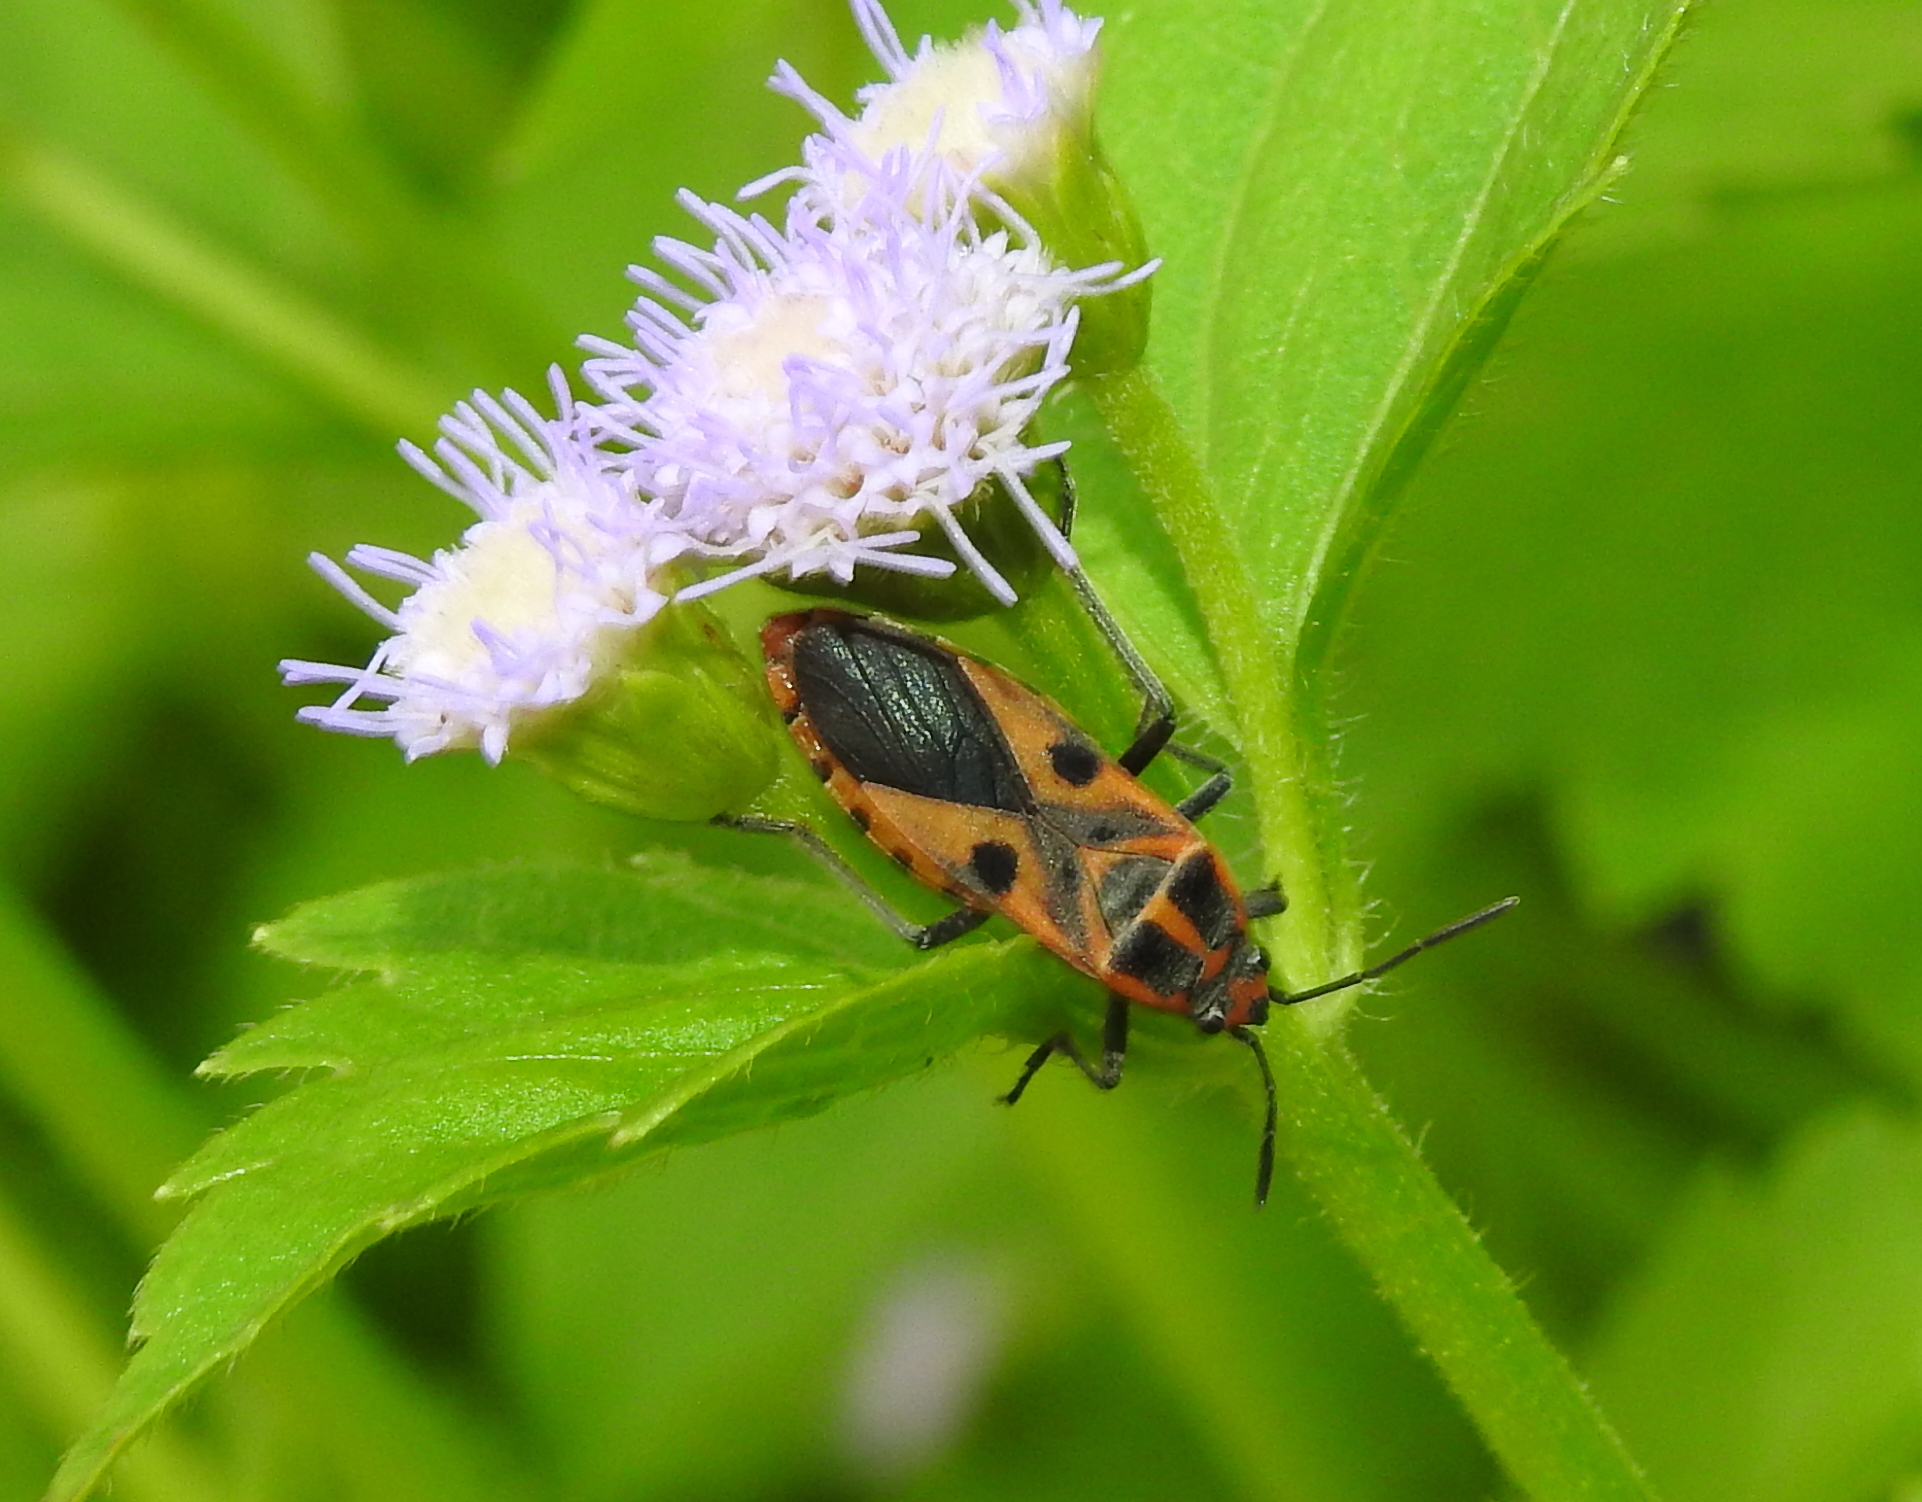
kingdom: Animalia
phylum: Arthropoda
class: Insecta
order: Hemiptera
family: Lygaeidae
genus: Spilostethus
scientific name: Spilostethus hospes
